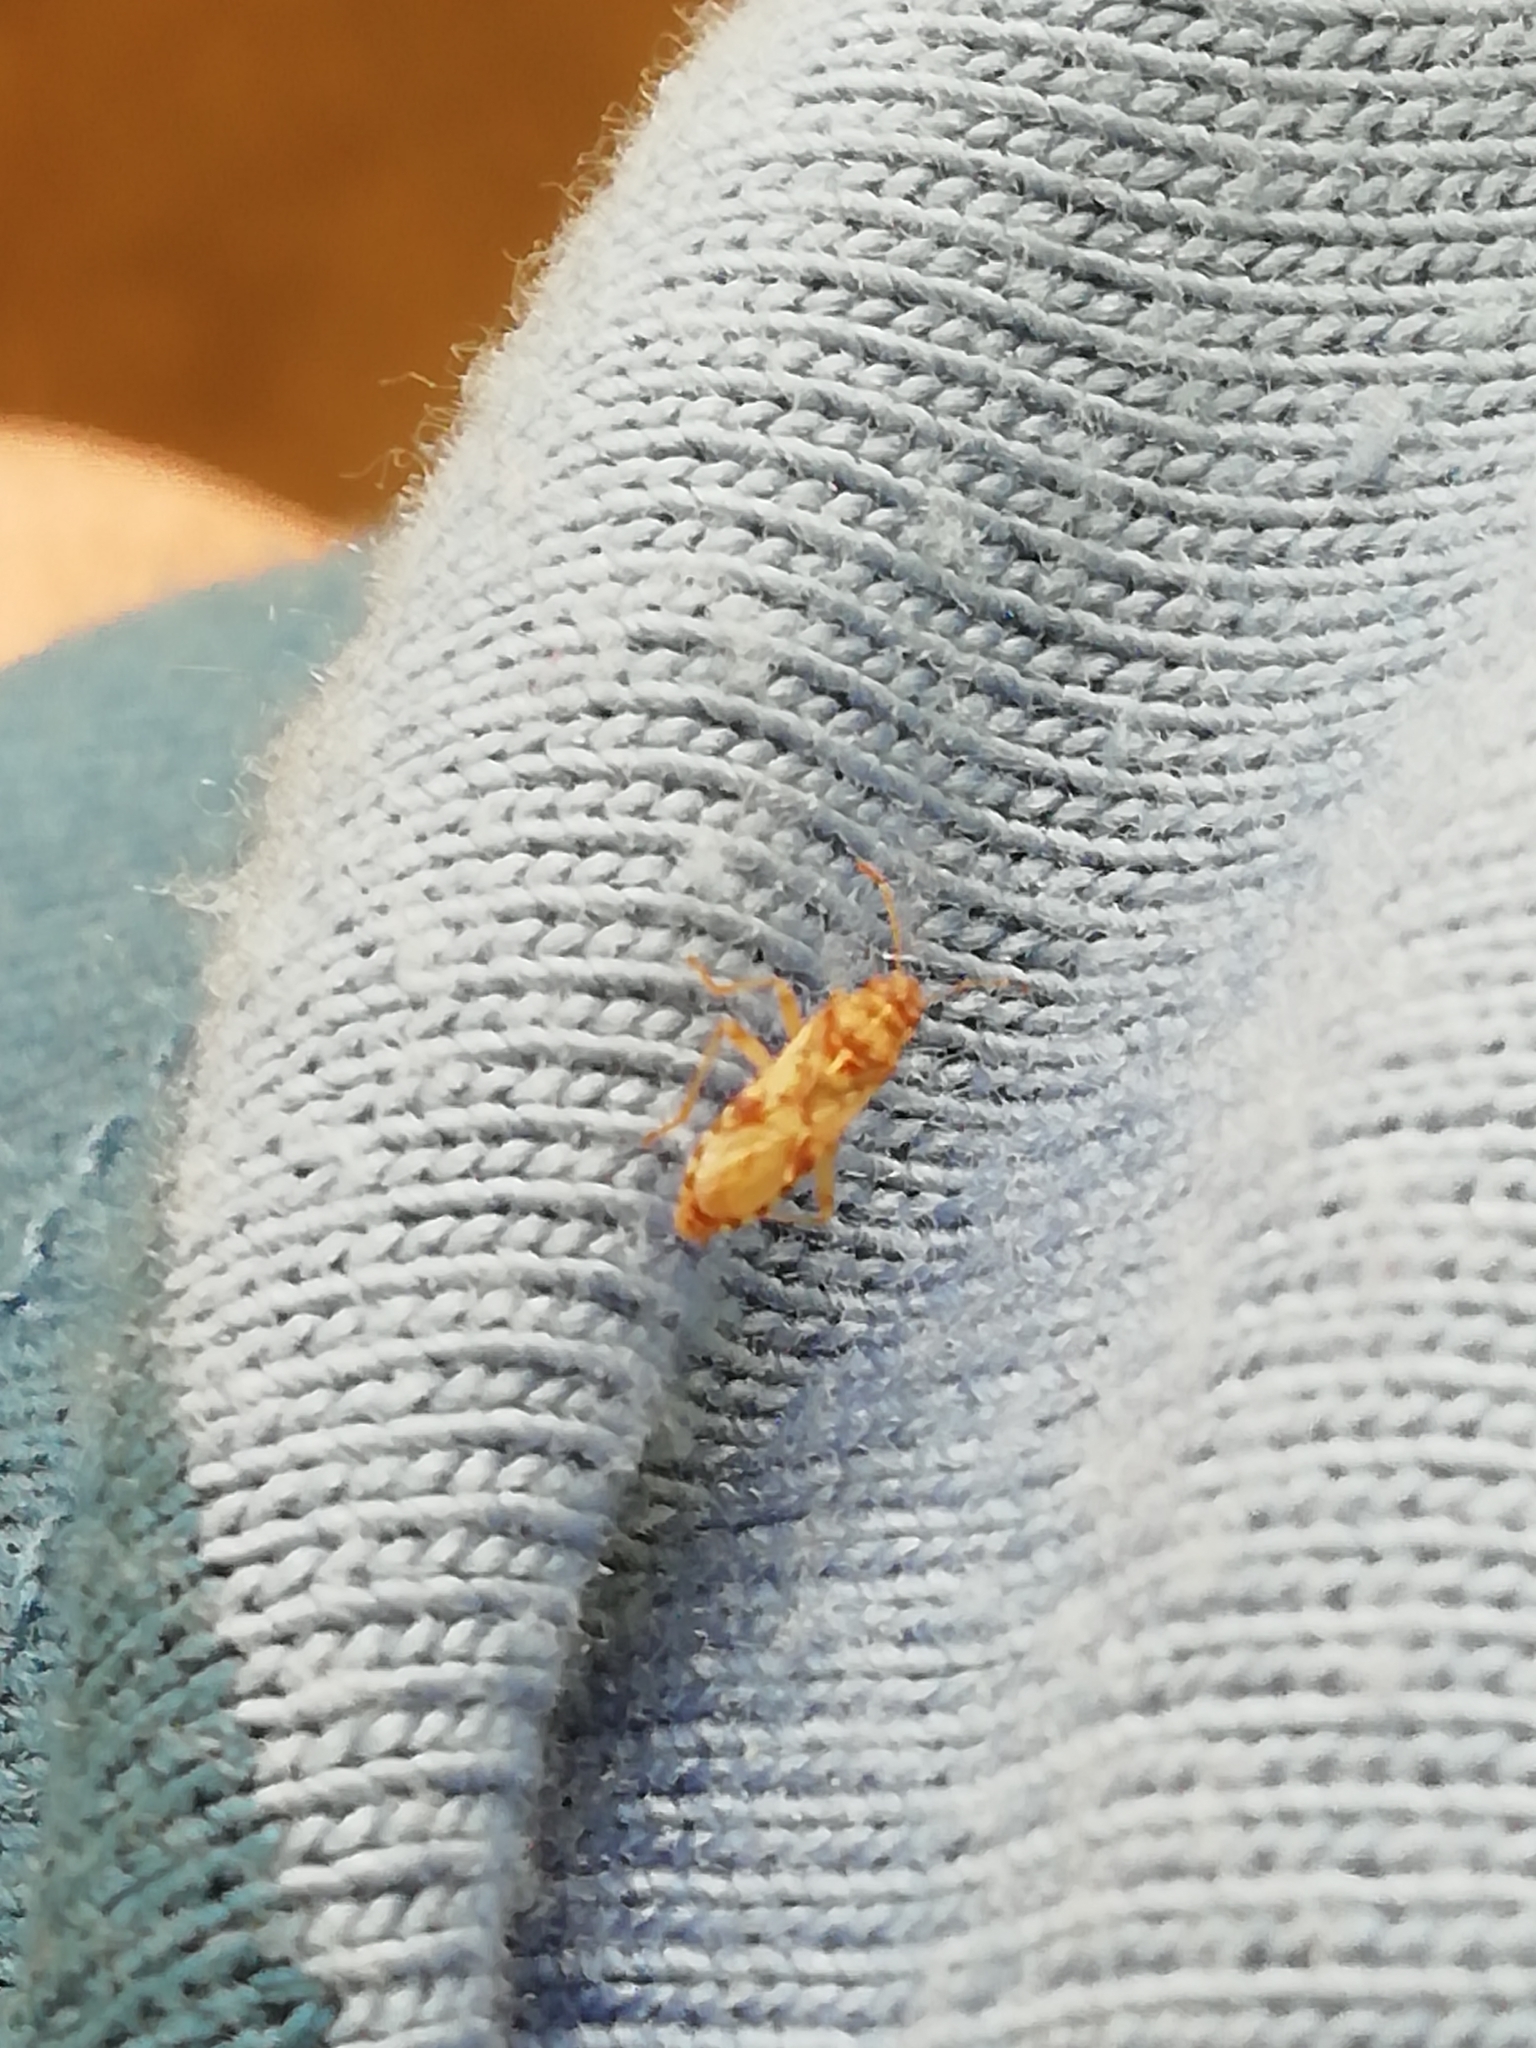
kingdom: Animalia
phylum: Arthropoda
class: Insecta
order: Hemiptera
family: Lygaeidae
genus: Belonochilus
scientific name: Belonochilus numenius
